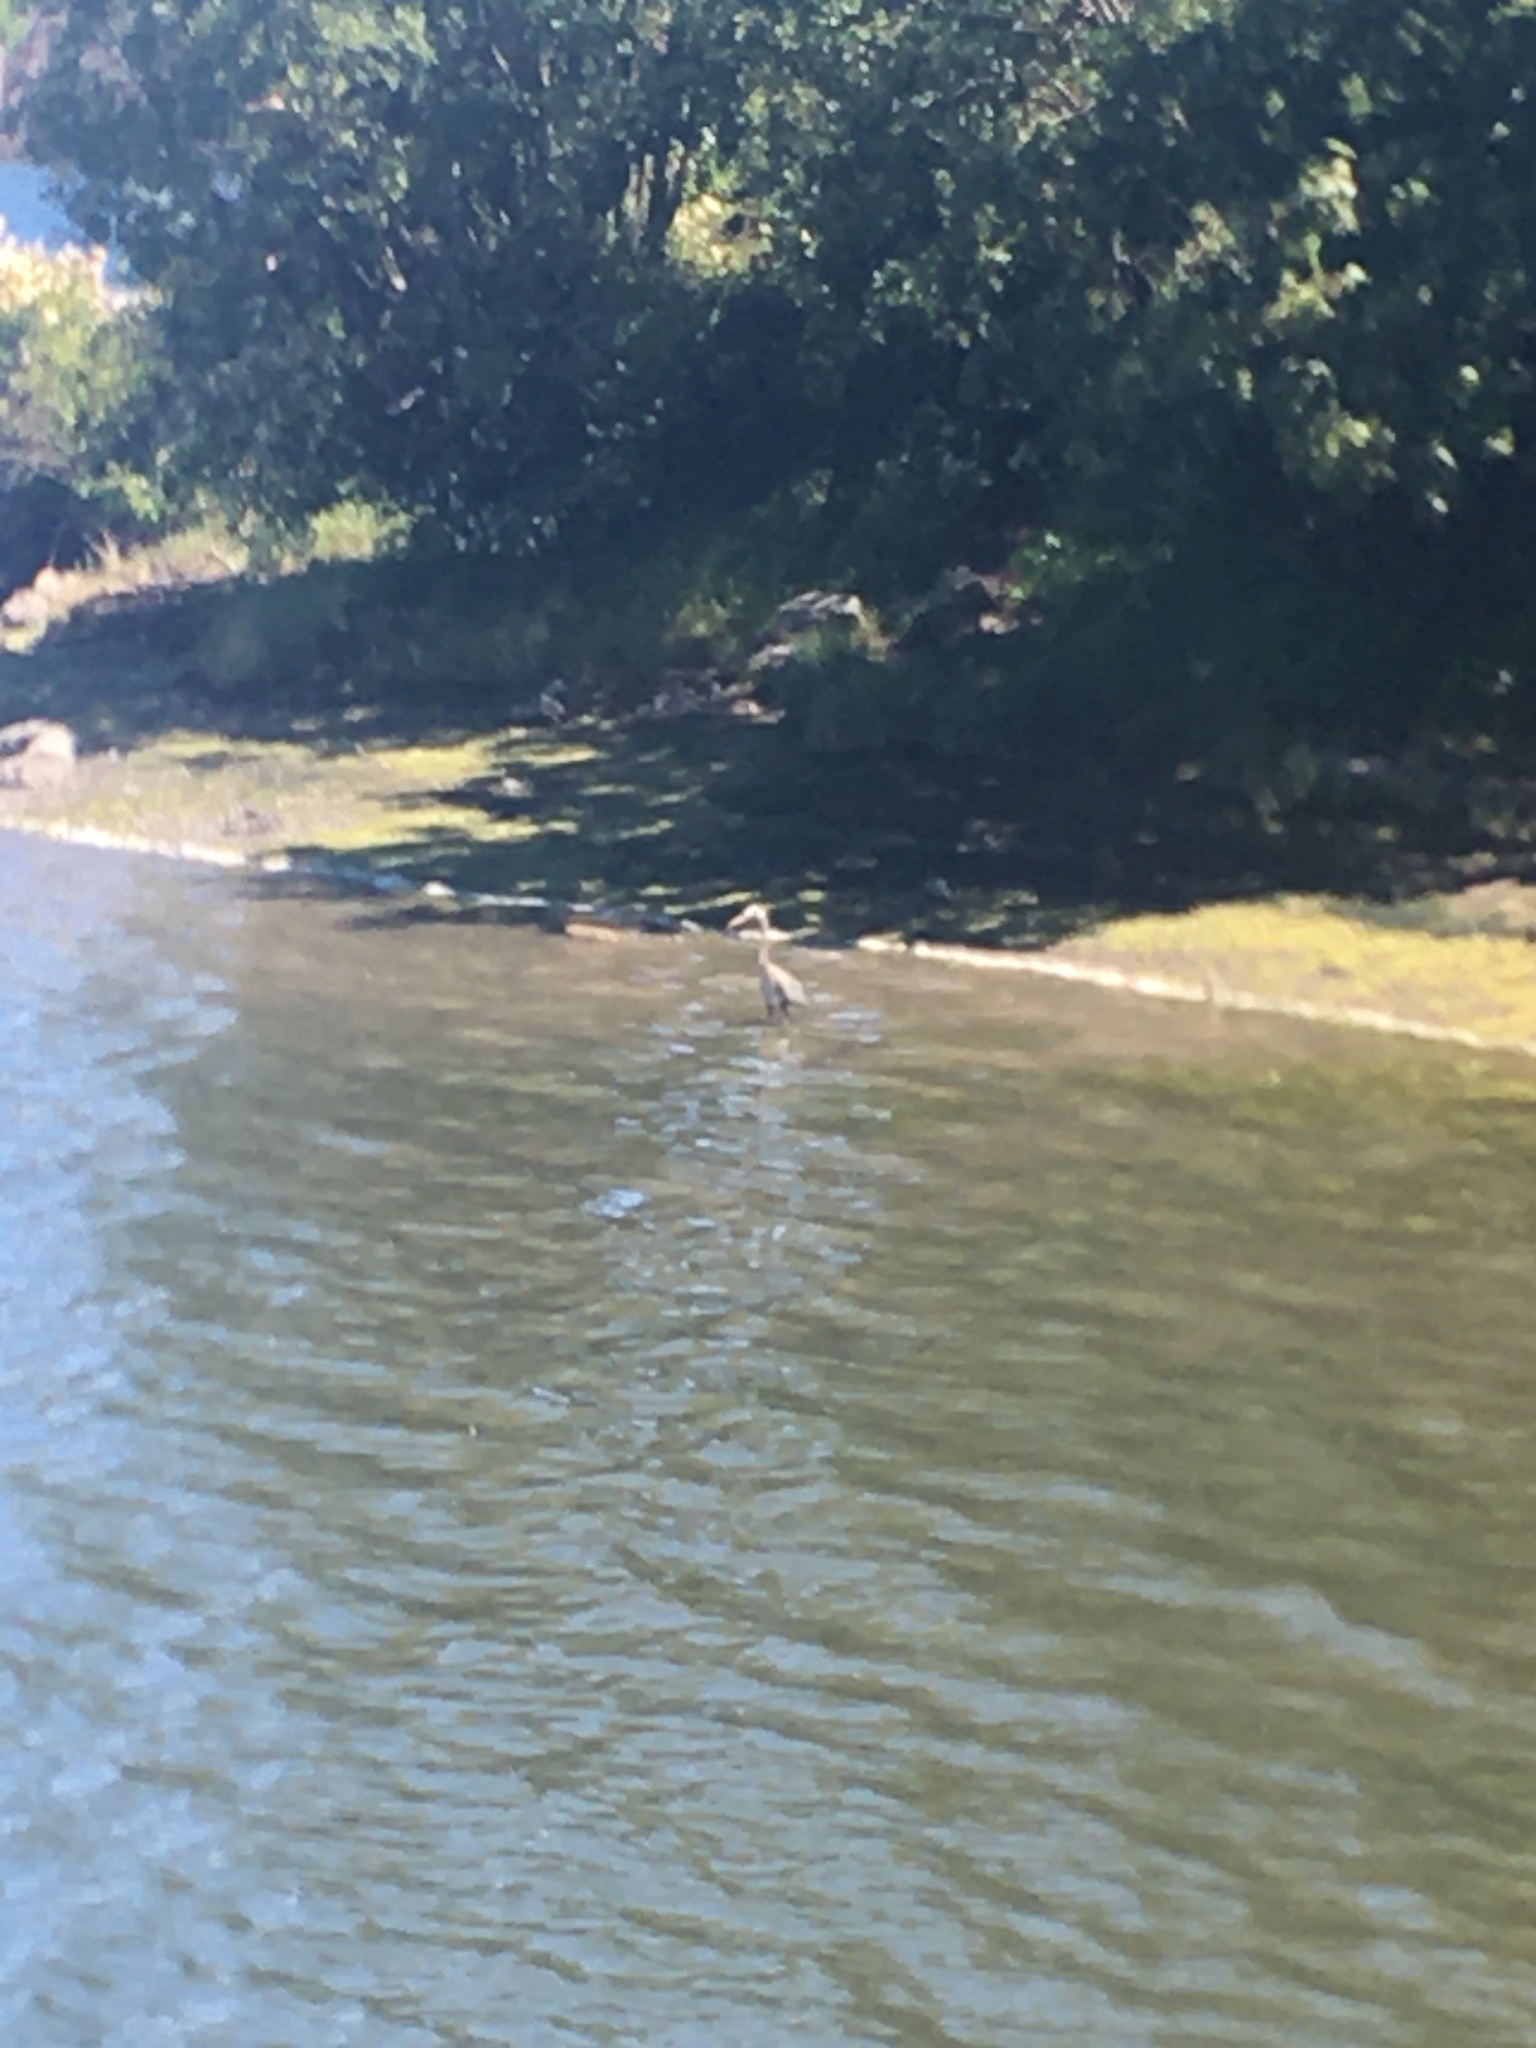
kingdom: Animalia
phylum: Chordata
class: Aves
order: Pelecaniformes
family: Ardeidae
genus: Ardea
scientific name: Ardea herodias
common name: Great blue heron
